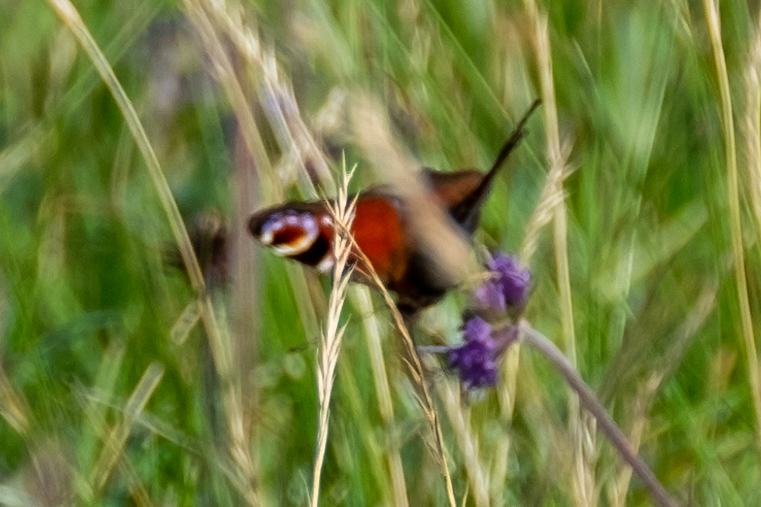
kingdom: Animalia
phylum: Arthropoda
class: Insecta
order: Lepidoptera
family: Nymphalidae
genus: Aglais
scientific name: Aglais io
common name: Peacock
